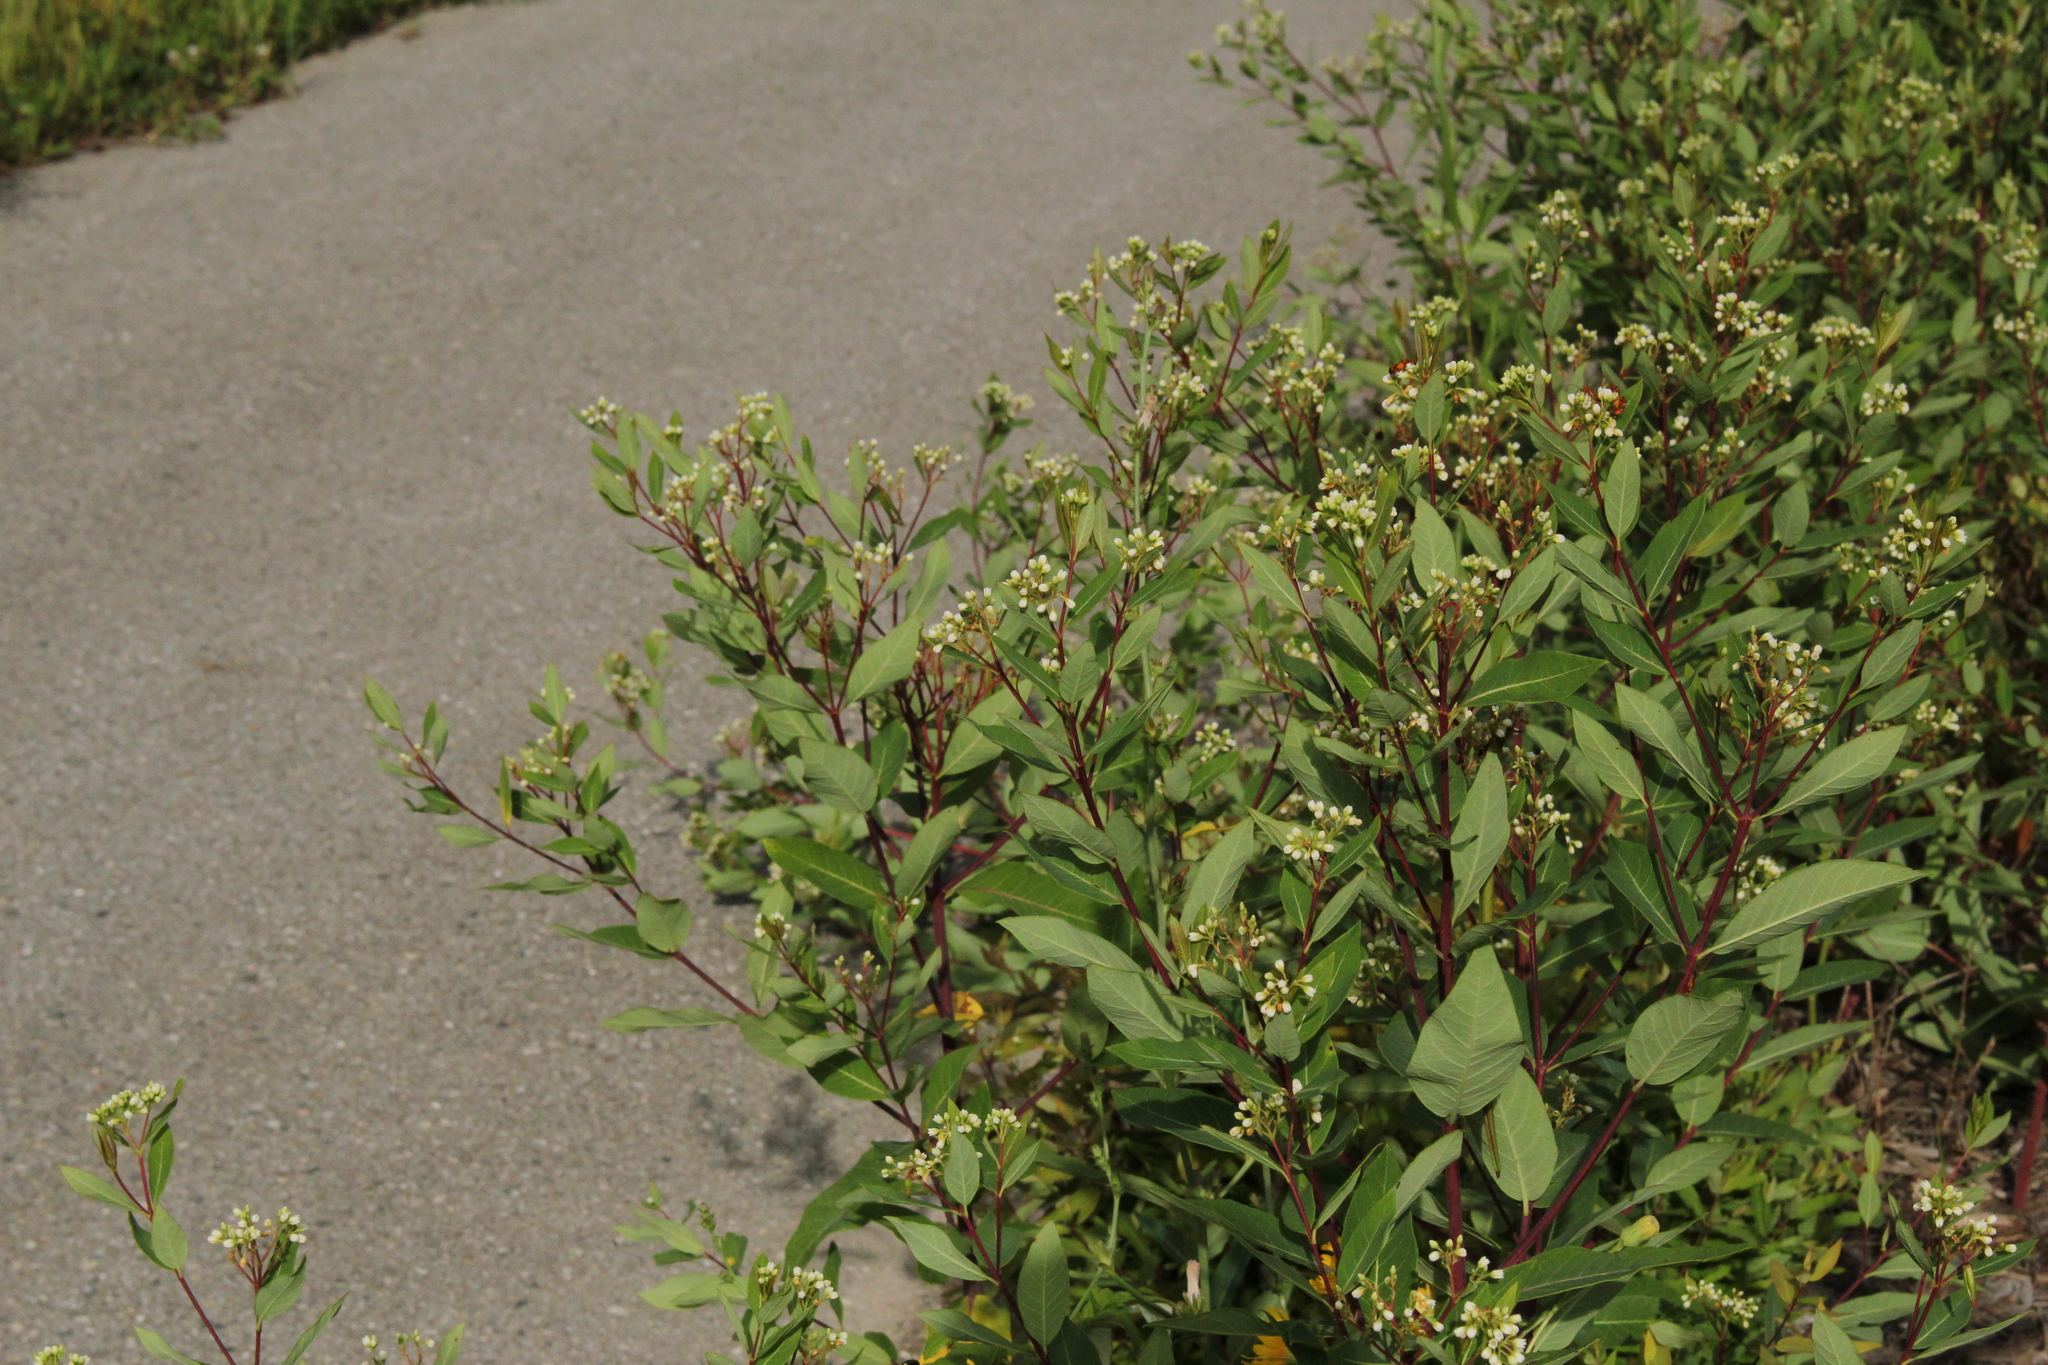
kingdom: Plantae
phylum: Tracheophyta
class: Magnoliopsida
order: Gentianales
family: Apocynaceae
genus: Apocynum
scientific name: Apocynum cannabinum
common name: Hemp dogbane
